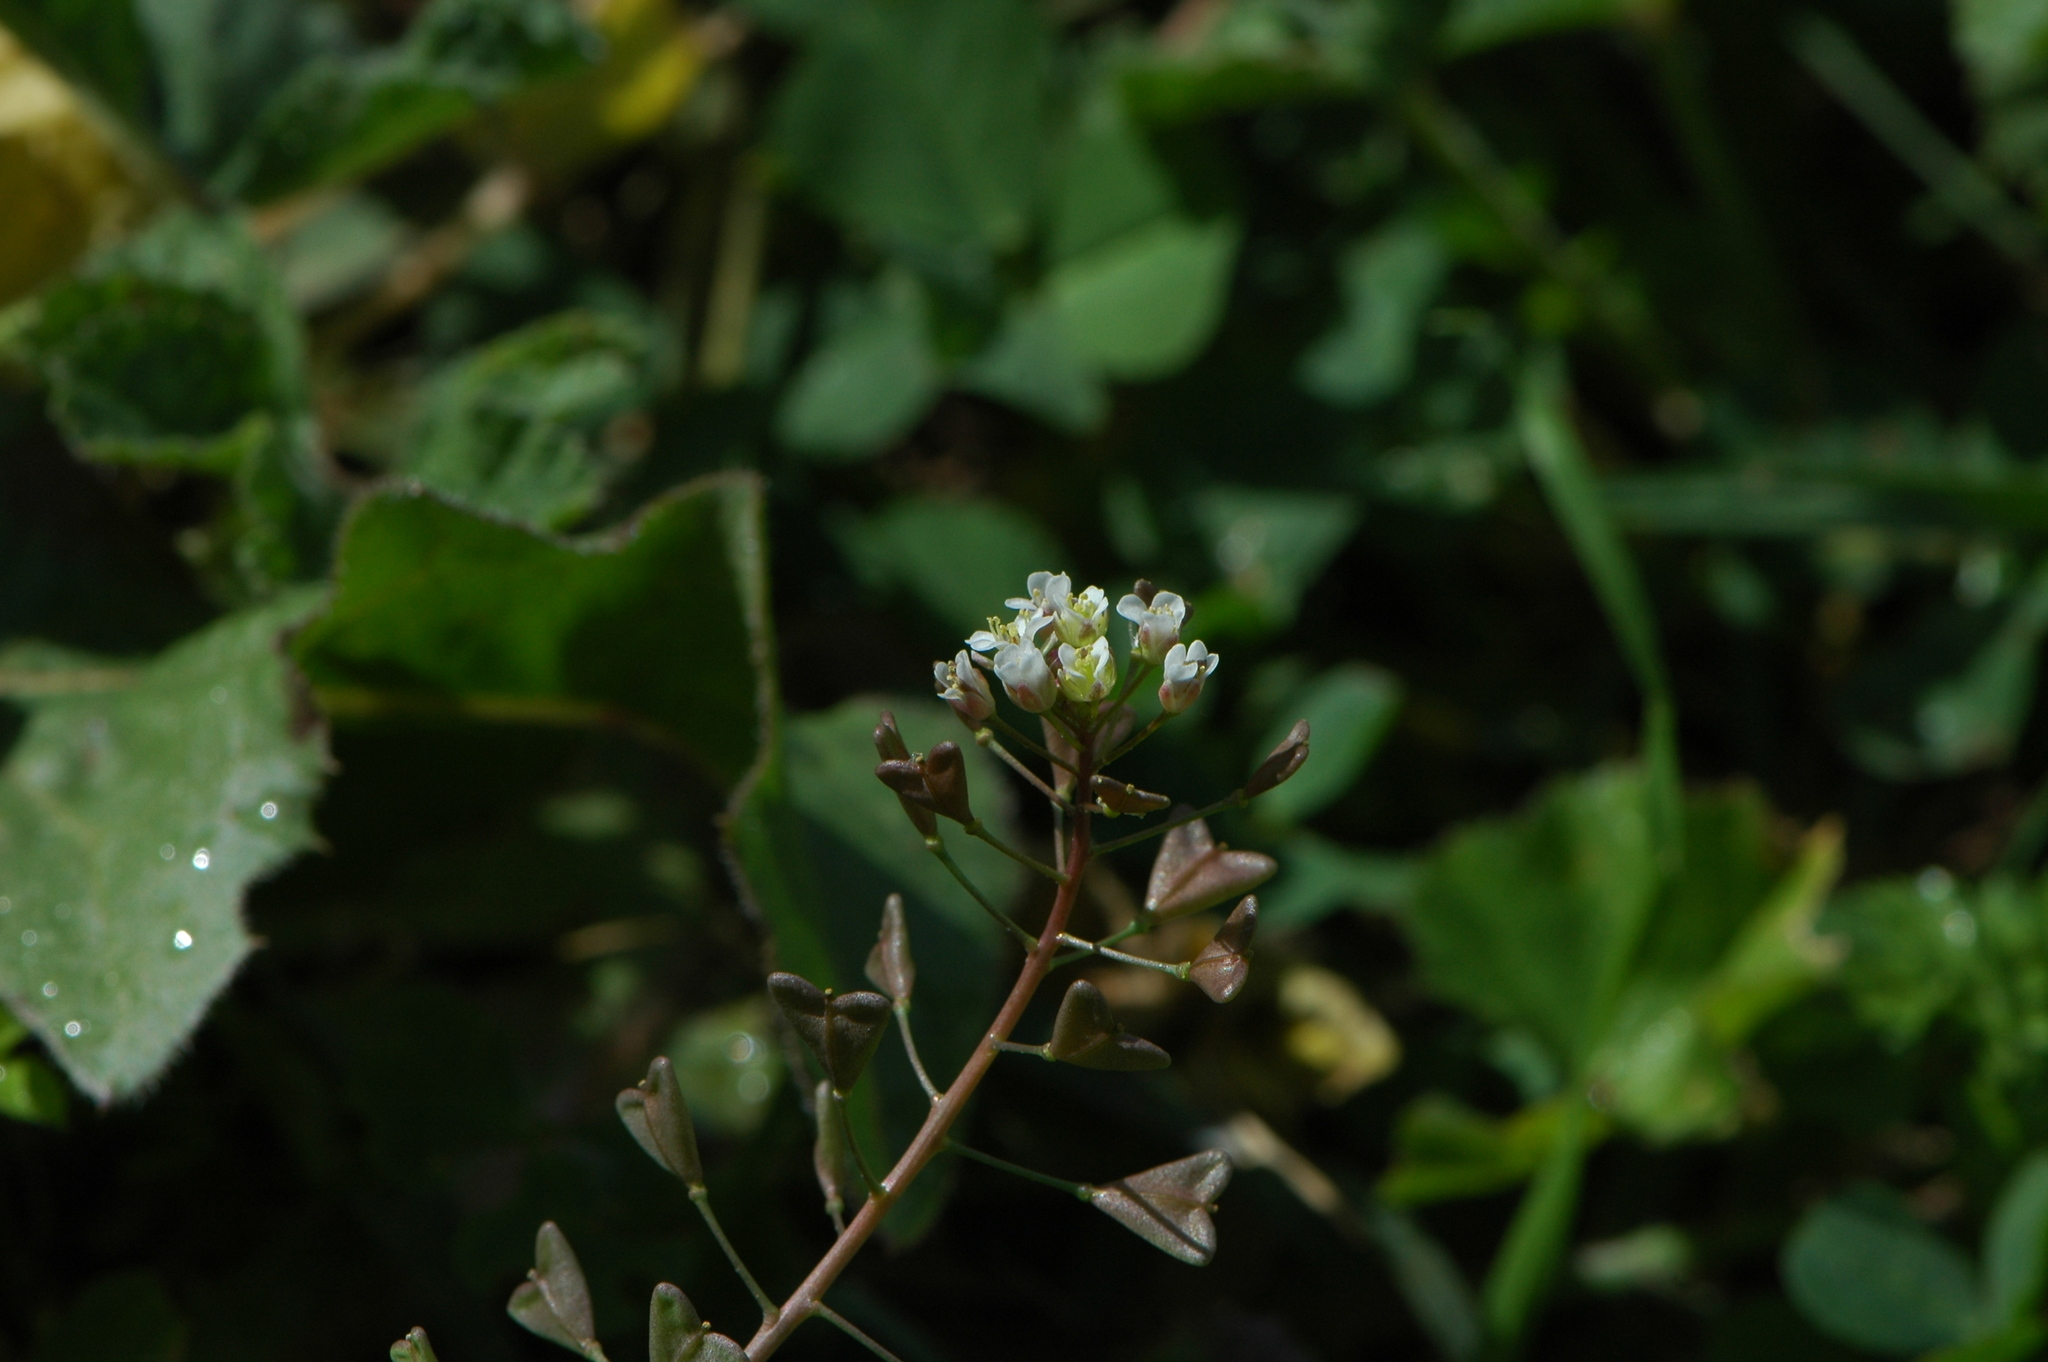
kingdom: Plantae
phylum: Tracheophyta
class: Magnoliopsida
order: Brassicales
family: Brassicaceae
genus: Capsella
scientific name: Capsella bursa-pastoris
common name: Shepherd's purse
